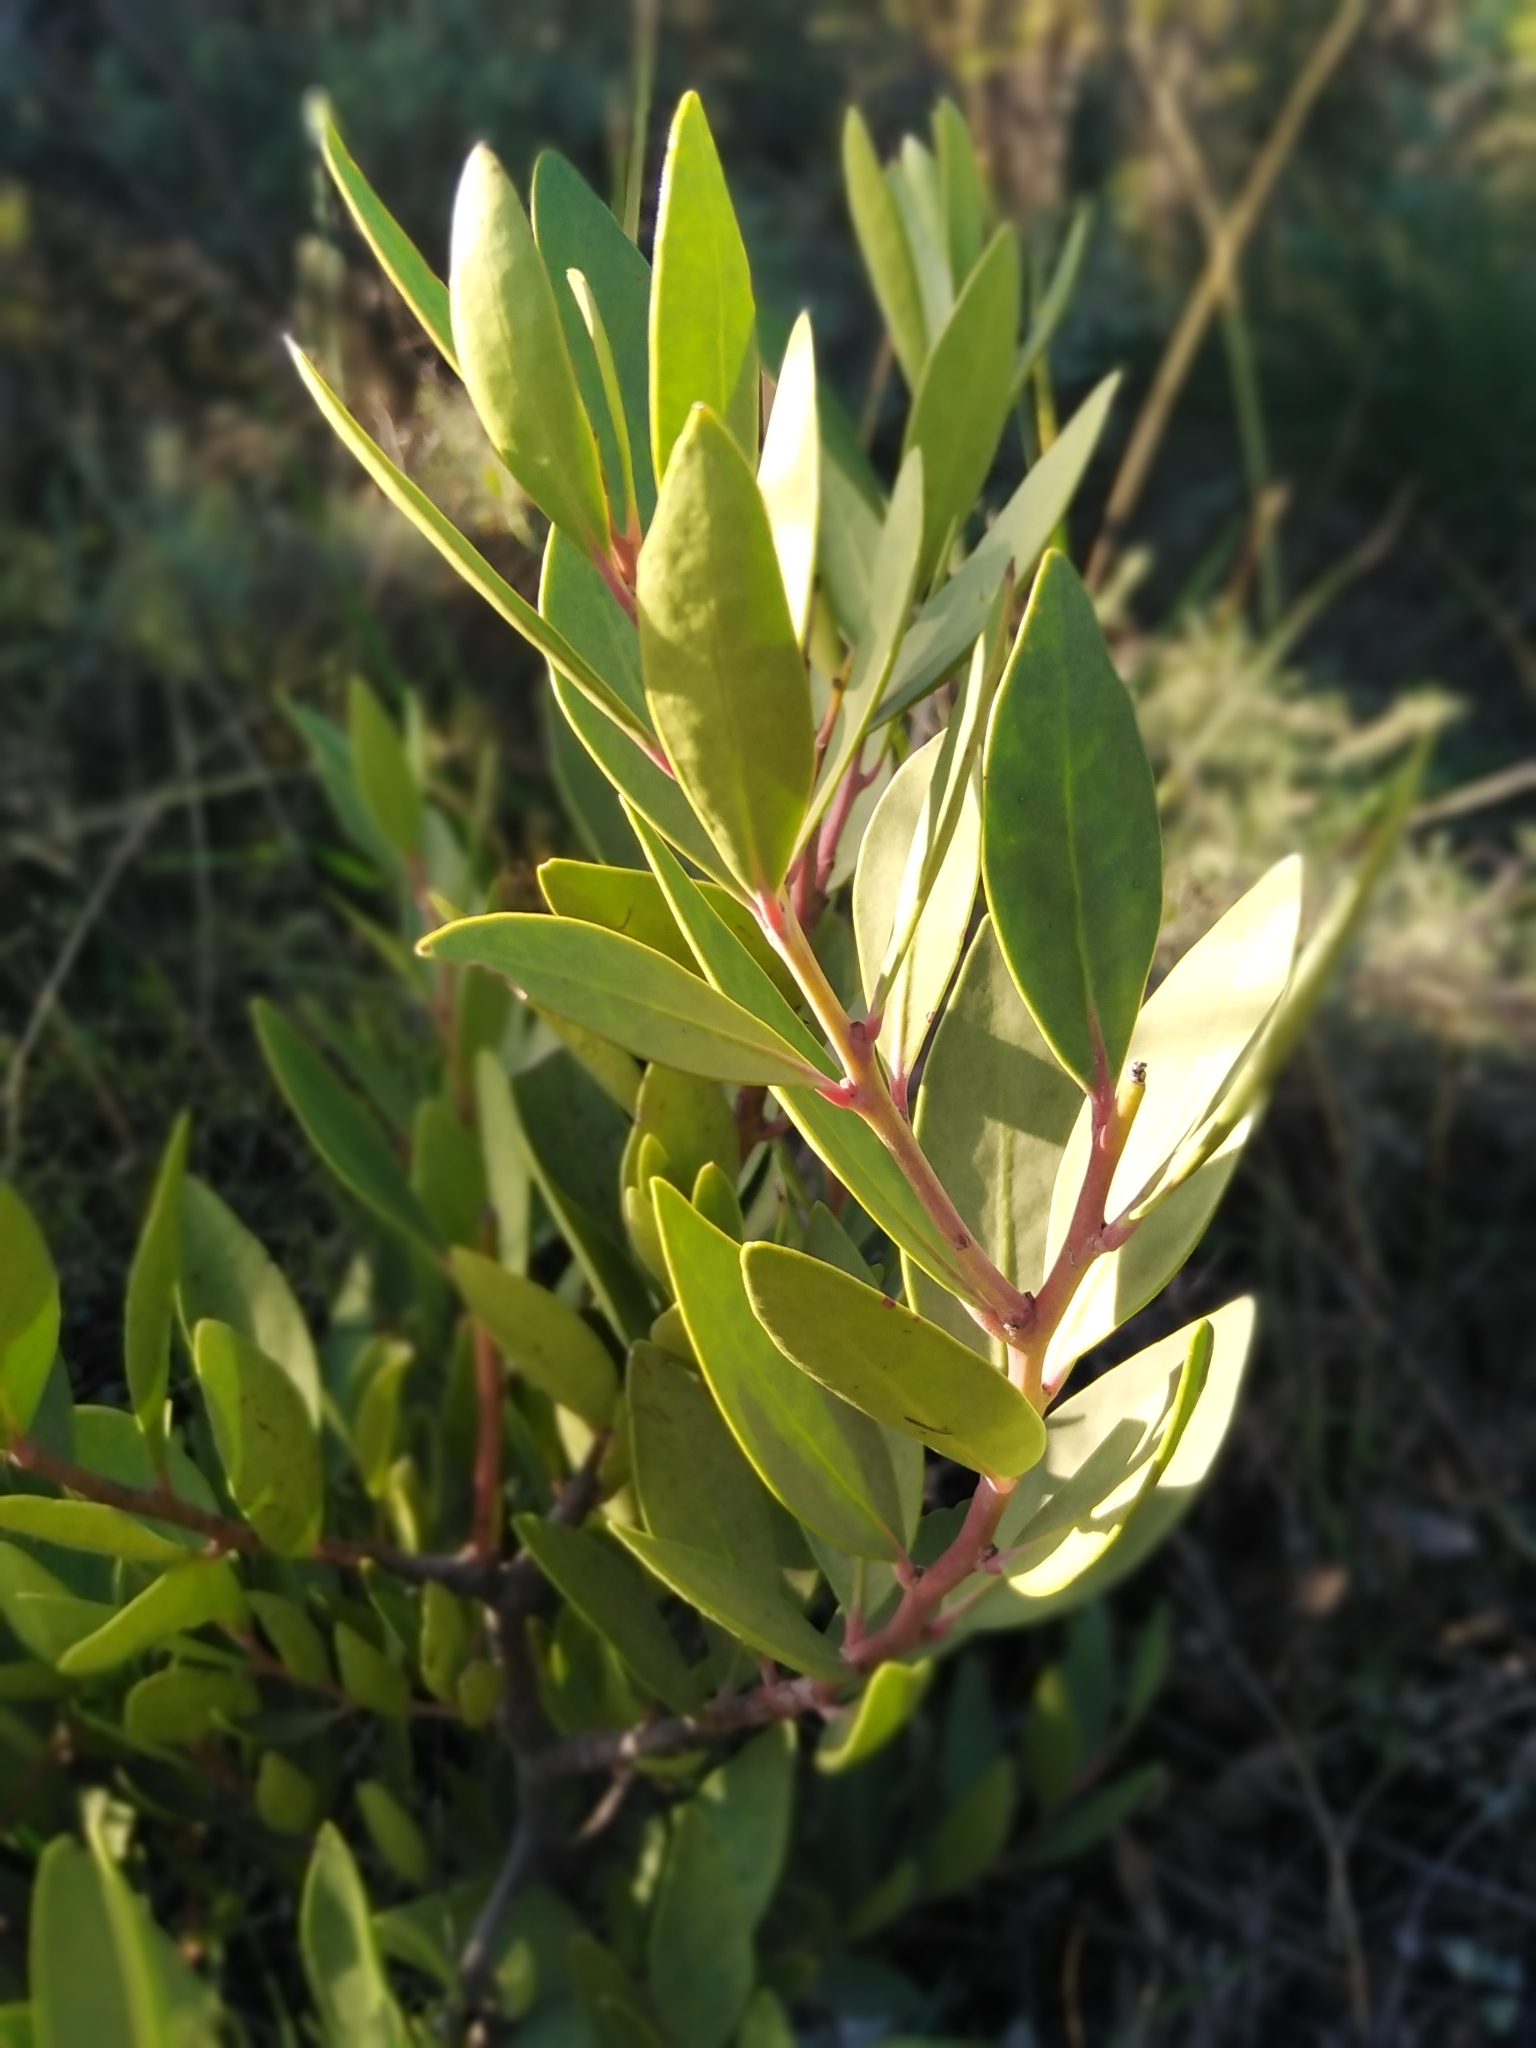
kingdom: Plantae
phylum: Tracheophyta
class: Magnoliopsida
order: Celastrales
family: Celastraceae
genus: Gymnosporia
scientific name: Gymnosporia laurina
